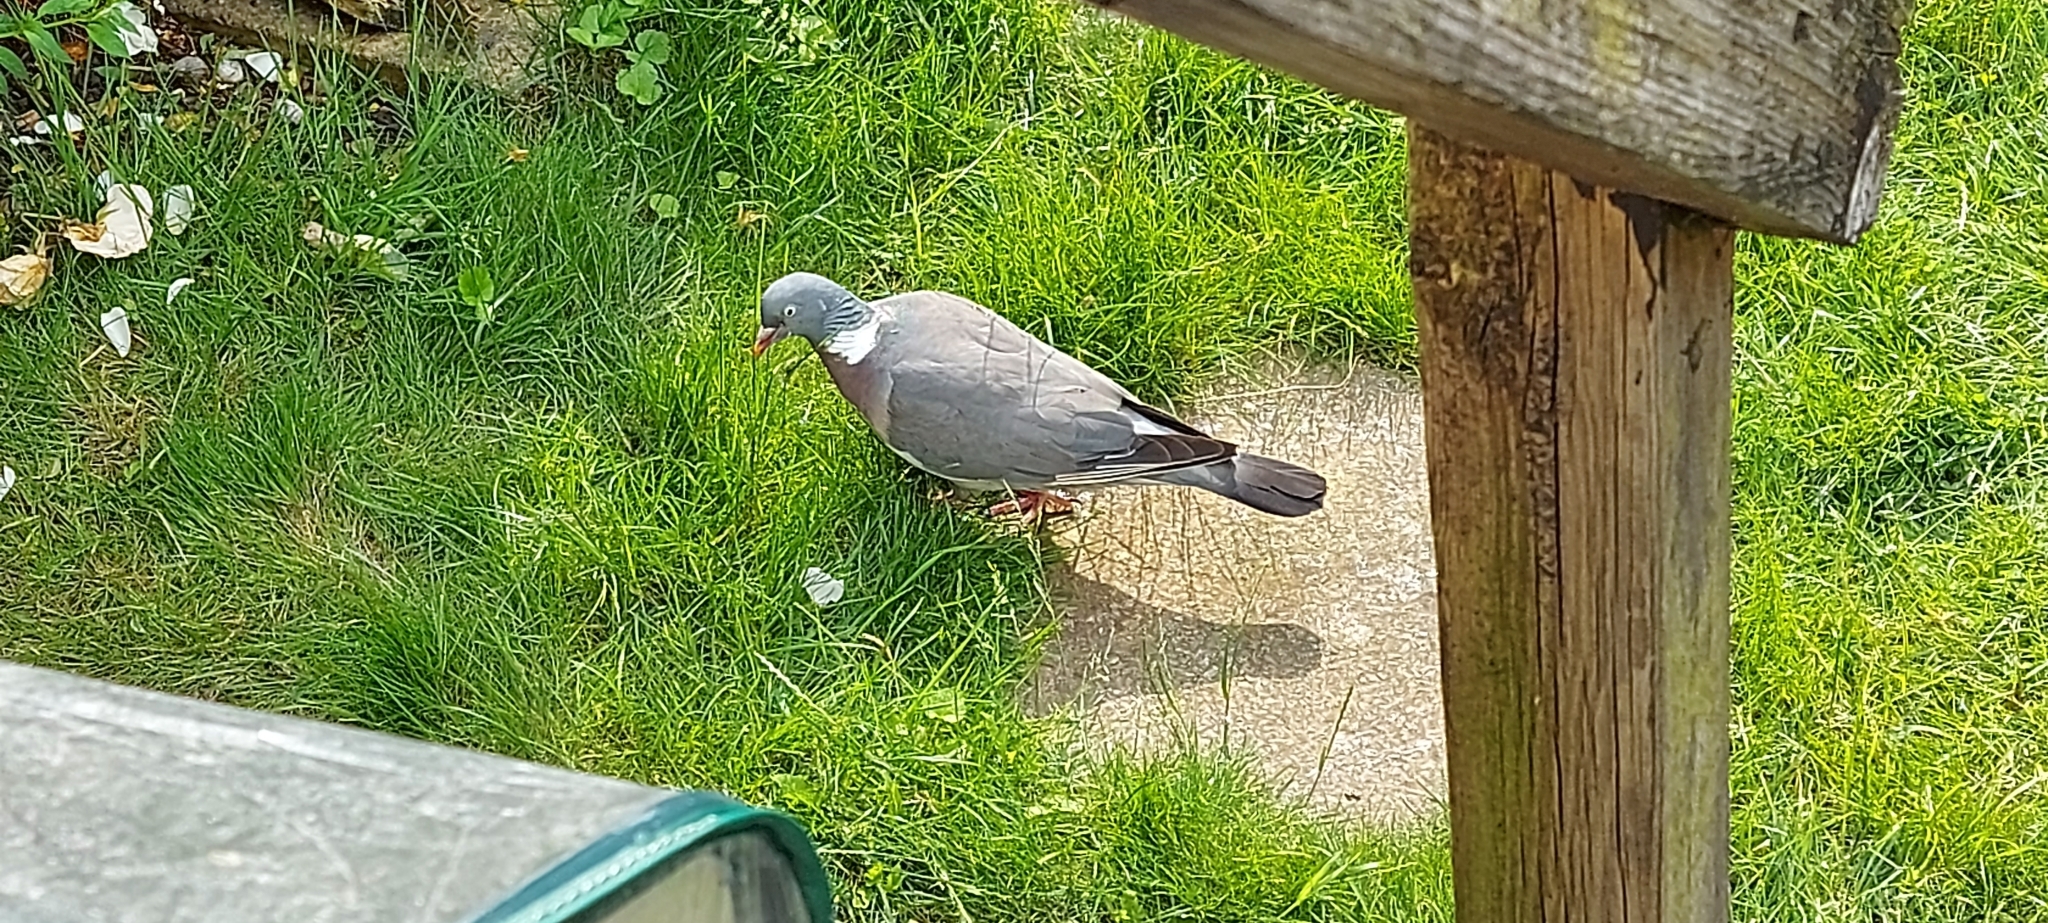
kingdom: Animalia
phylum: Chordata
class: Aves
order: Columbiformes
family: Columbidae
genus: Columba
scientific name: Columba palumbus
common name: Common wood pigeon
